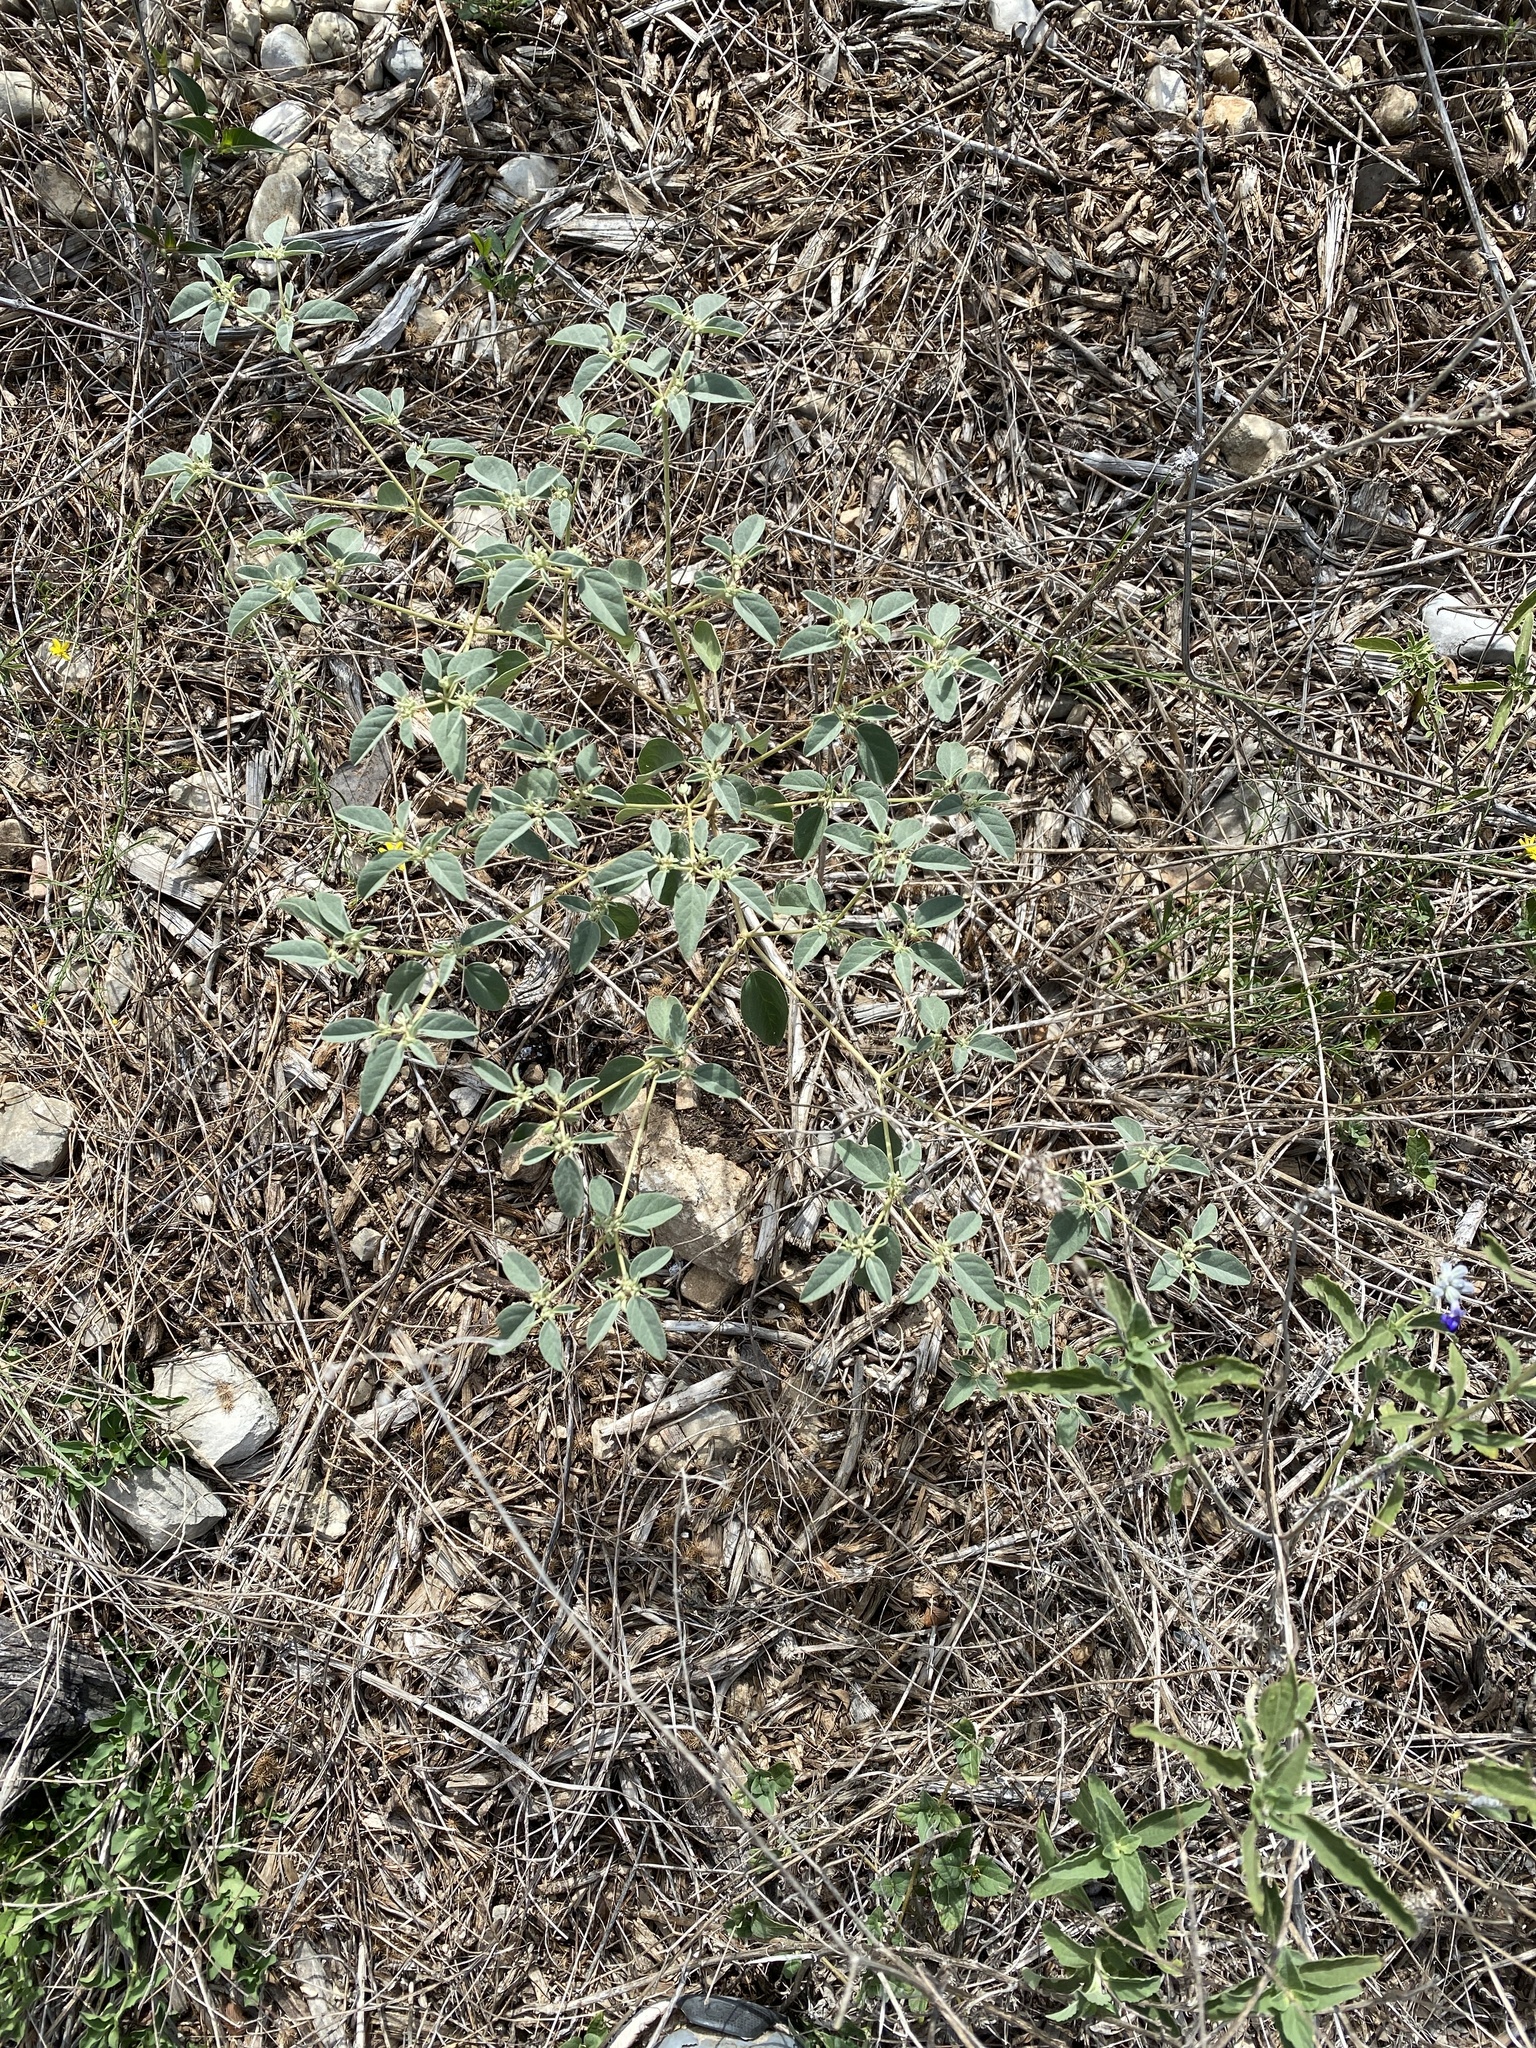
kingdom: Plantae
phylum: Tracheophyta
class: Magnoliopsida
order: Malpighiales
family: Euphorbiaceae
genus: Croton
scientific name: Croton monanthogynus
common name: One-seed croton
